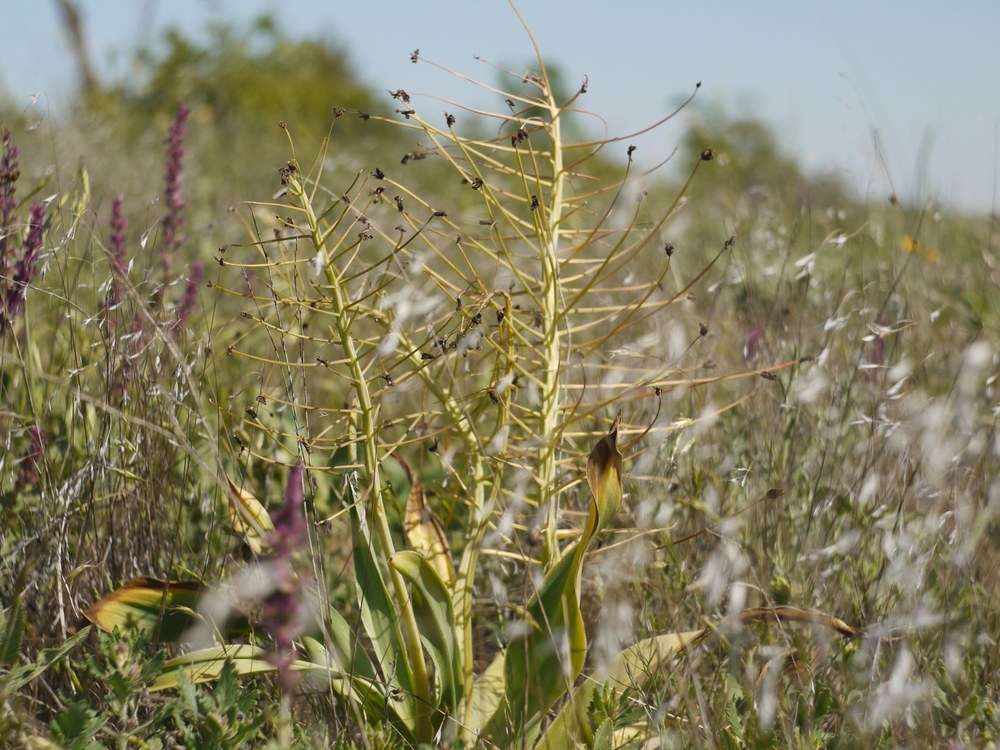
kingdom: Plantae
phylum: Tracheophyta
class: Liliopsida
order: Asparagales
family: Asparagaceae
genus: Bellevalia
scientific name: Bellevalia speciosa
